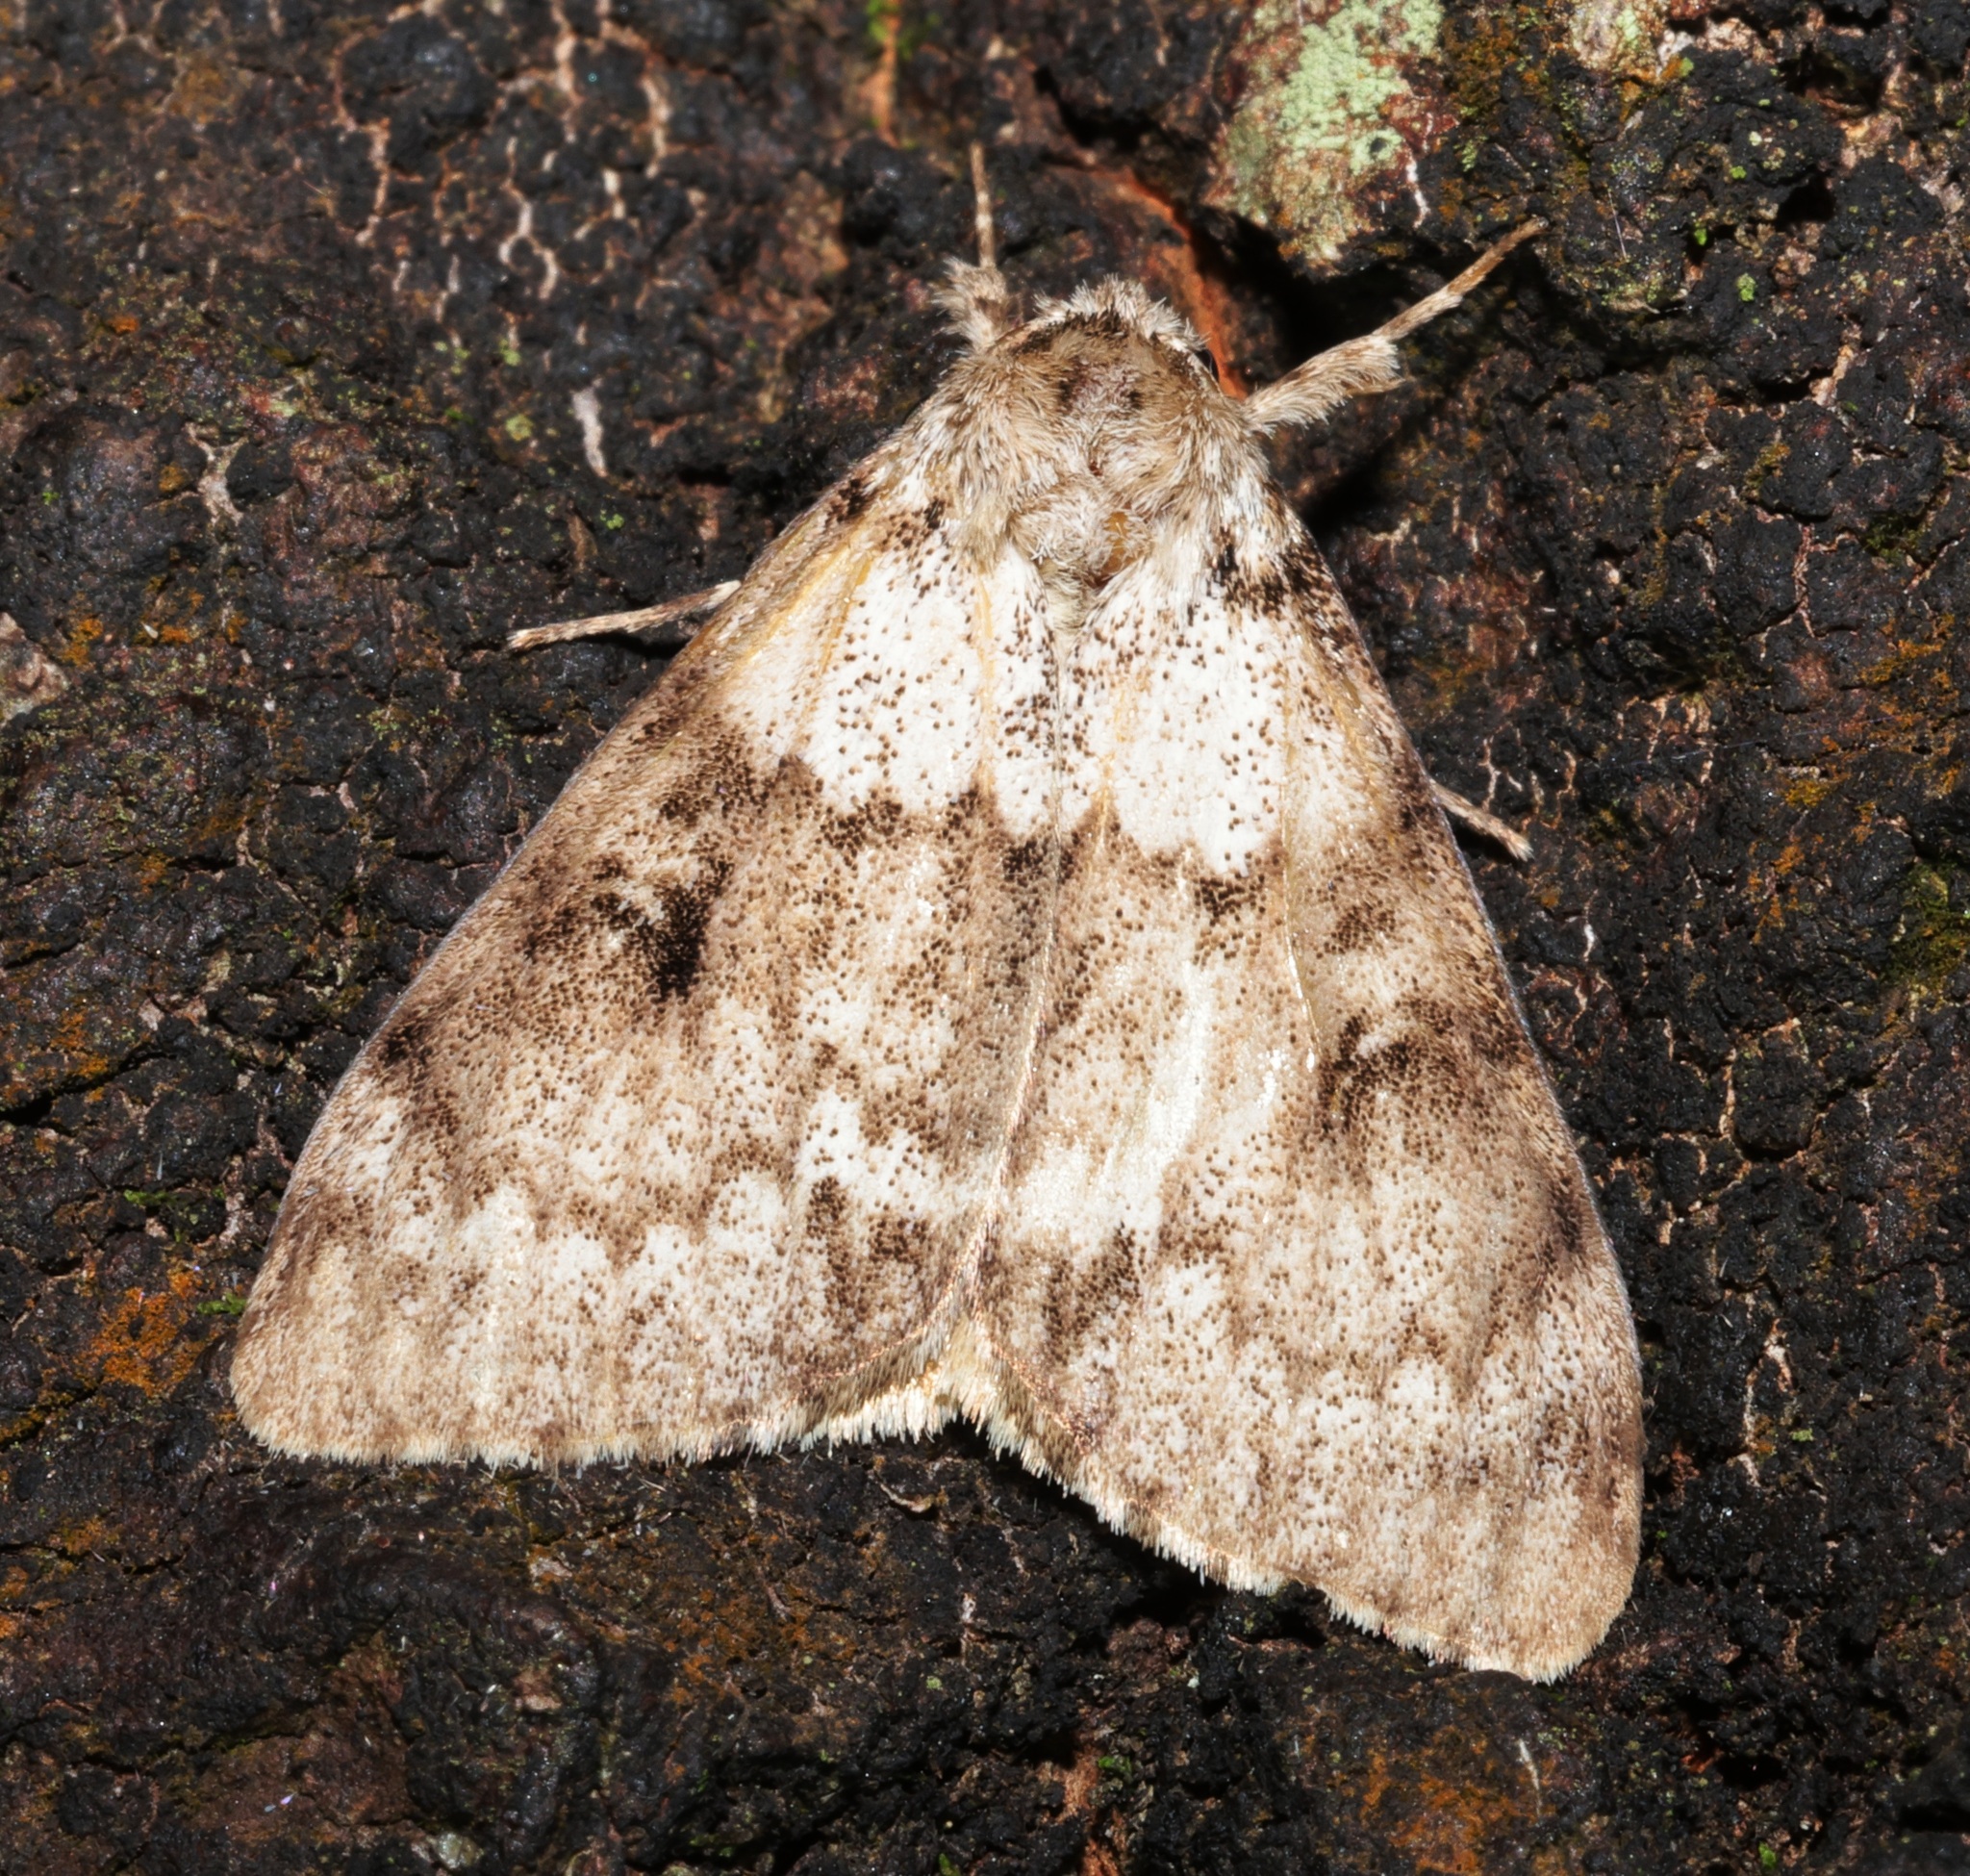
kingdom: Animalia
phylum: Arthropoda
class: Insecta
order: Lepidoptera
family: Erebidae
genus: Lymantria
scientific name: Lymantria sinica
